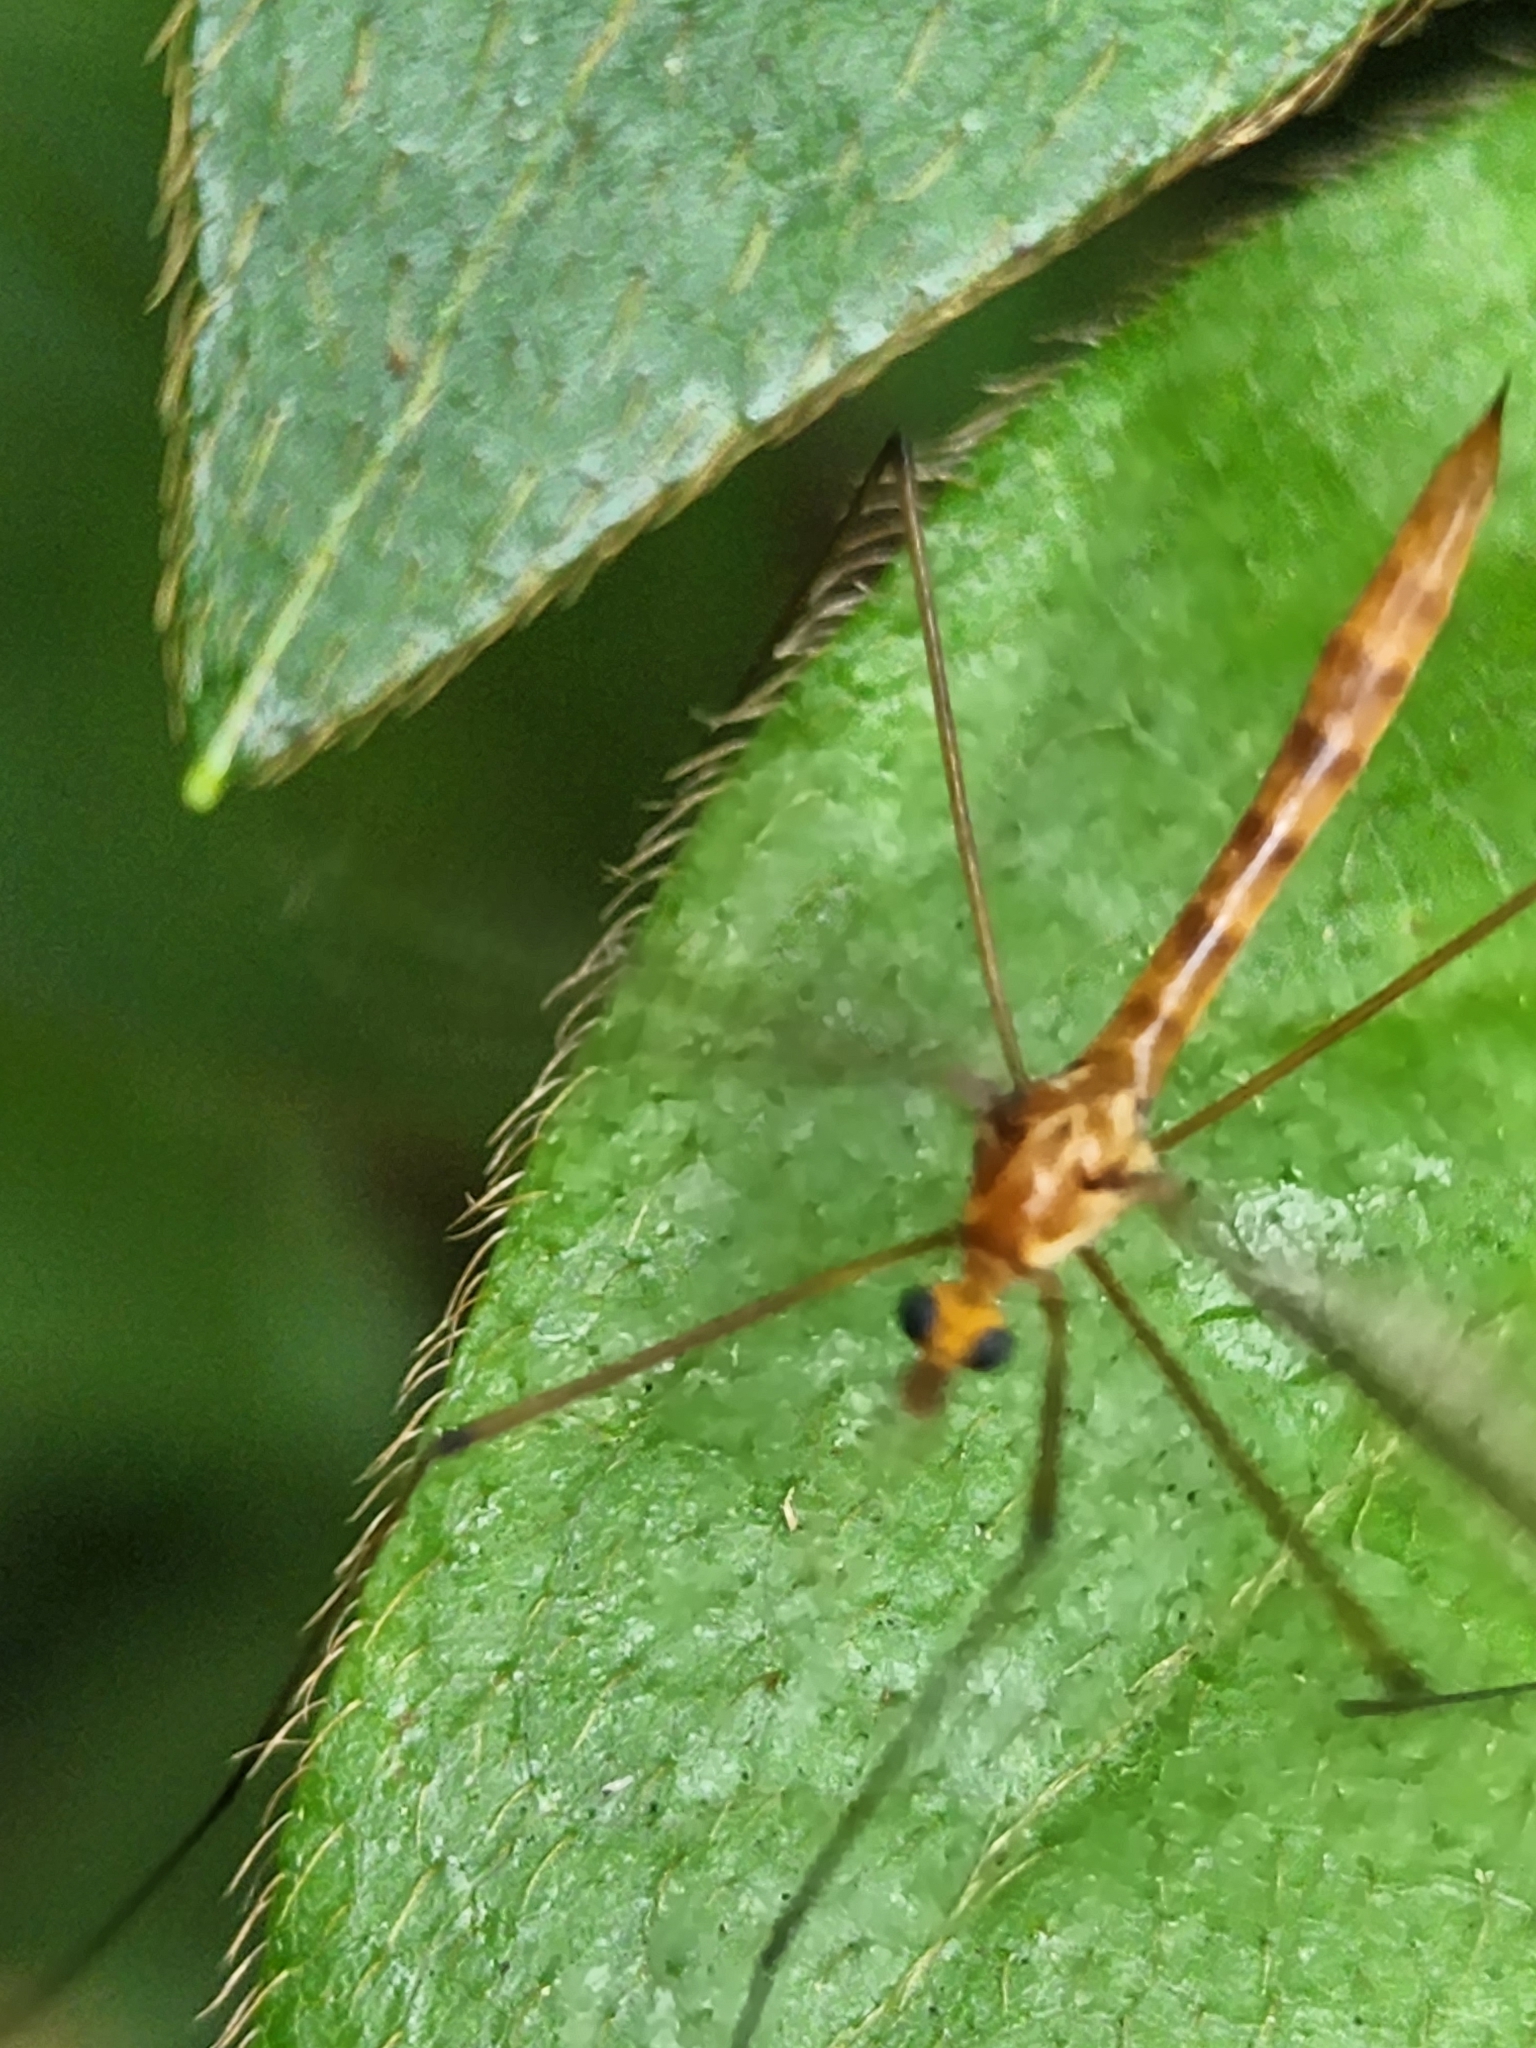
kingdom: Animalia
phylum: Arthropoda
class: Insecta
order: Diptera
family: Tipulidae
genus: Nephrotoma
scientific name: Nephrotoma suturalis
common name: Cranefly
